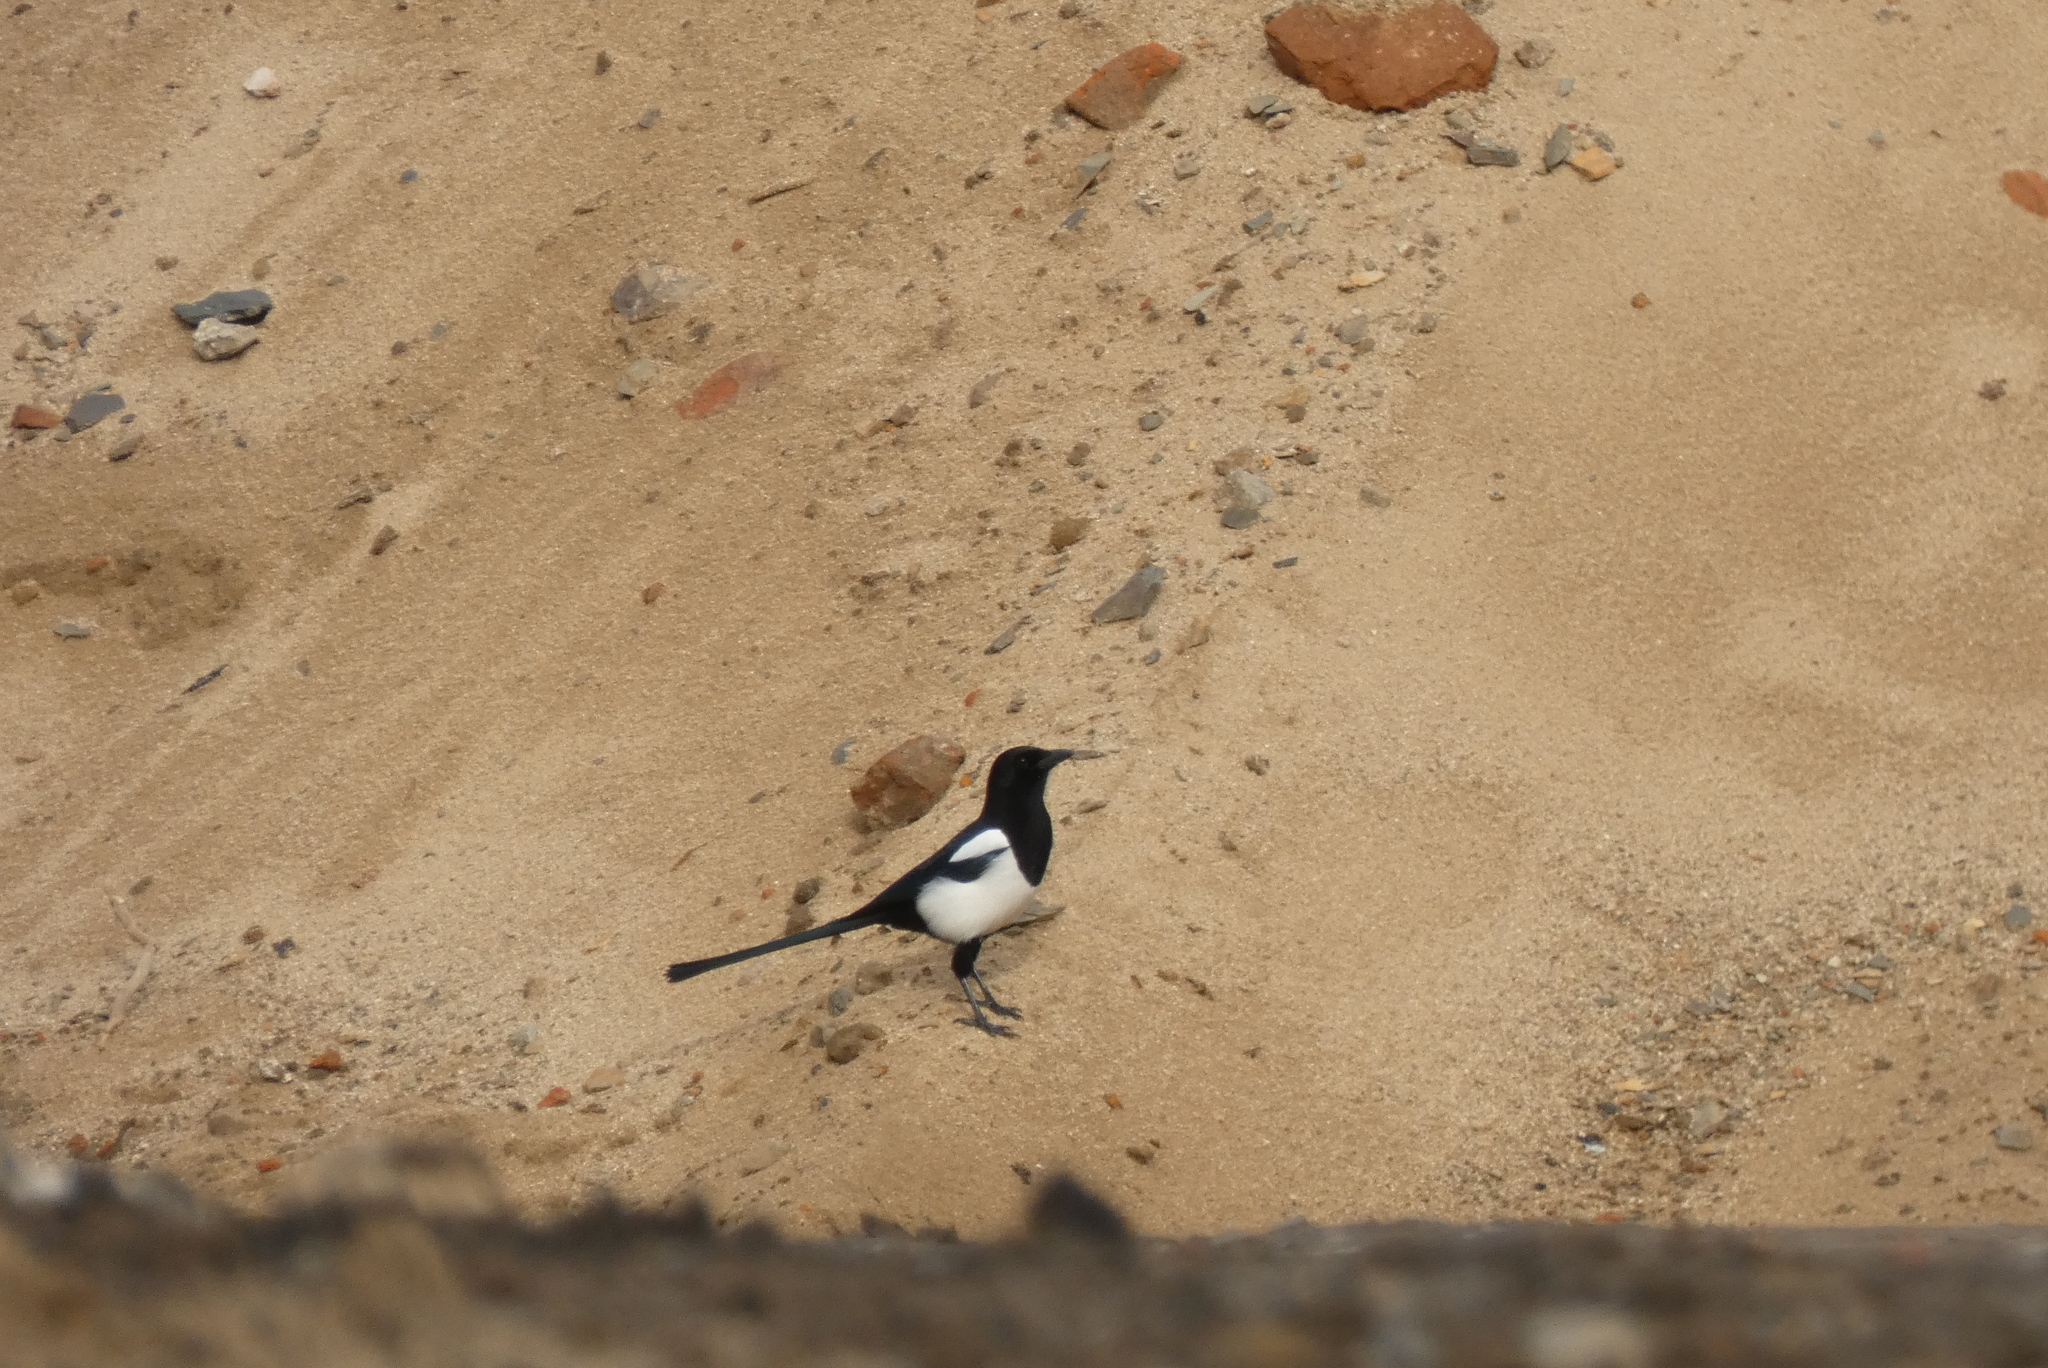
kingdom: Animalia
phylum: Chordata
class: Aves
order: Passeriformes
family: Corvidae
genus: Pica
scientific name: Pica pica
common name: Eurasian magpie
